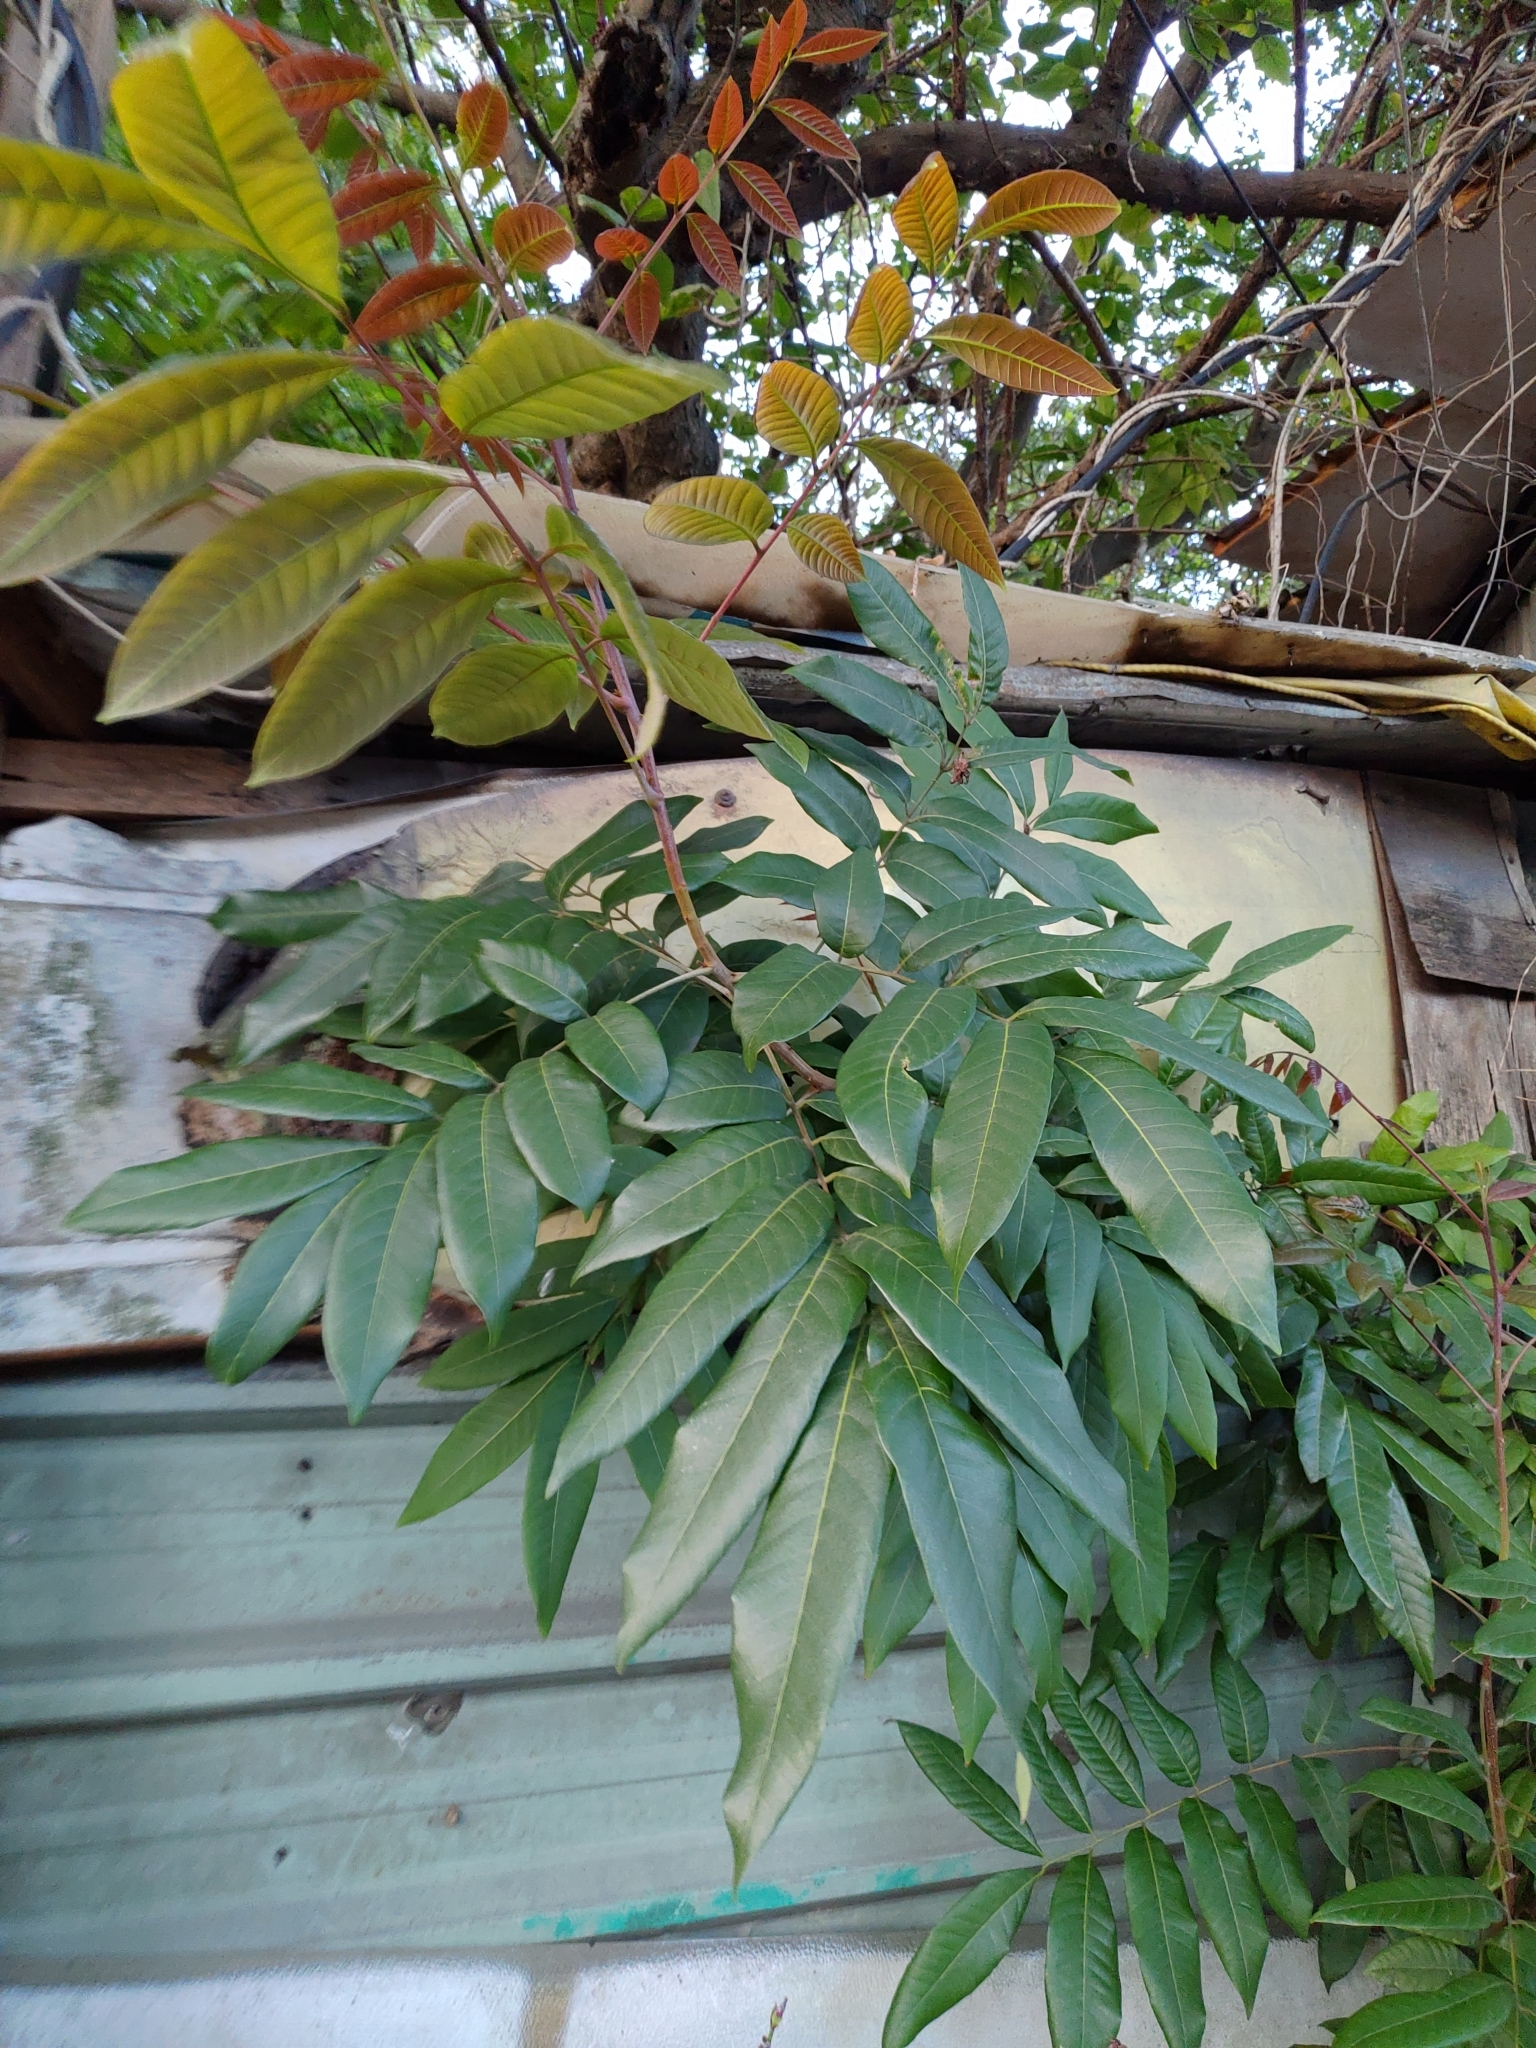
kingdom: Plantae
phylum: Tracheophyta
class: Magnoliopsida
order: Sapindales
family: Sapindaceae
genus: Dimocarpus
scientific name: Dimocarpus longan
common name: Longan
